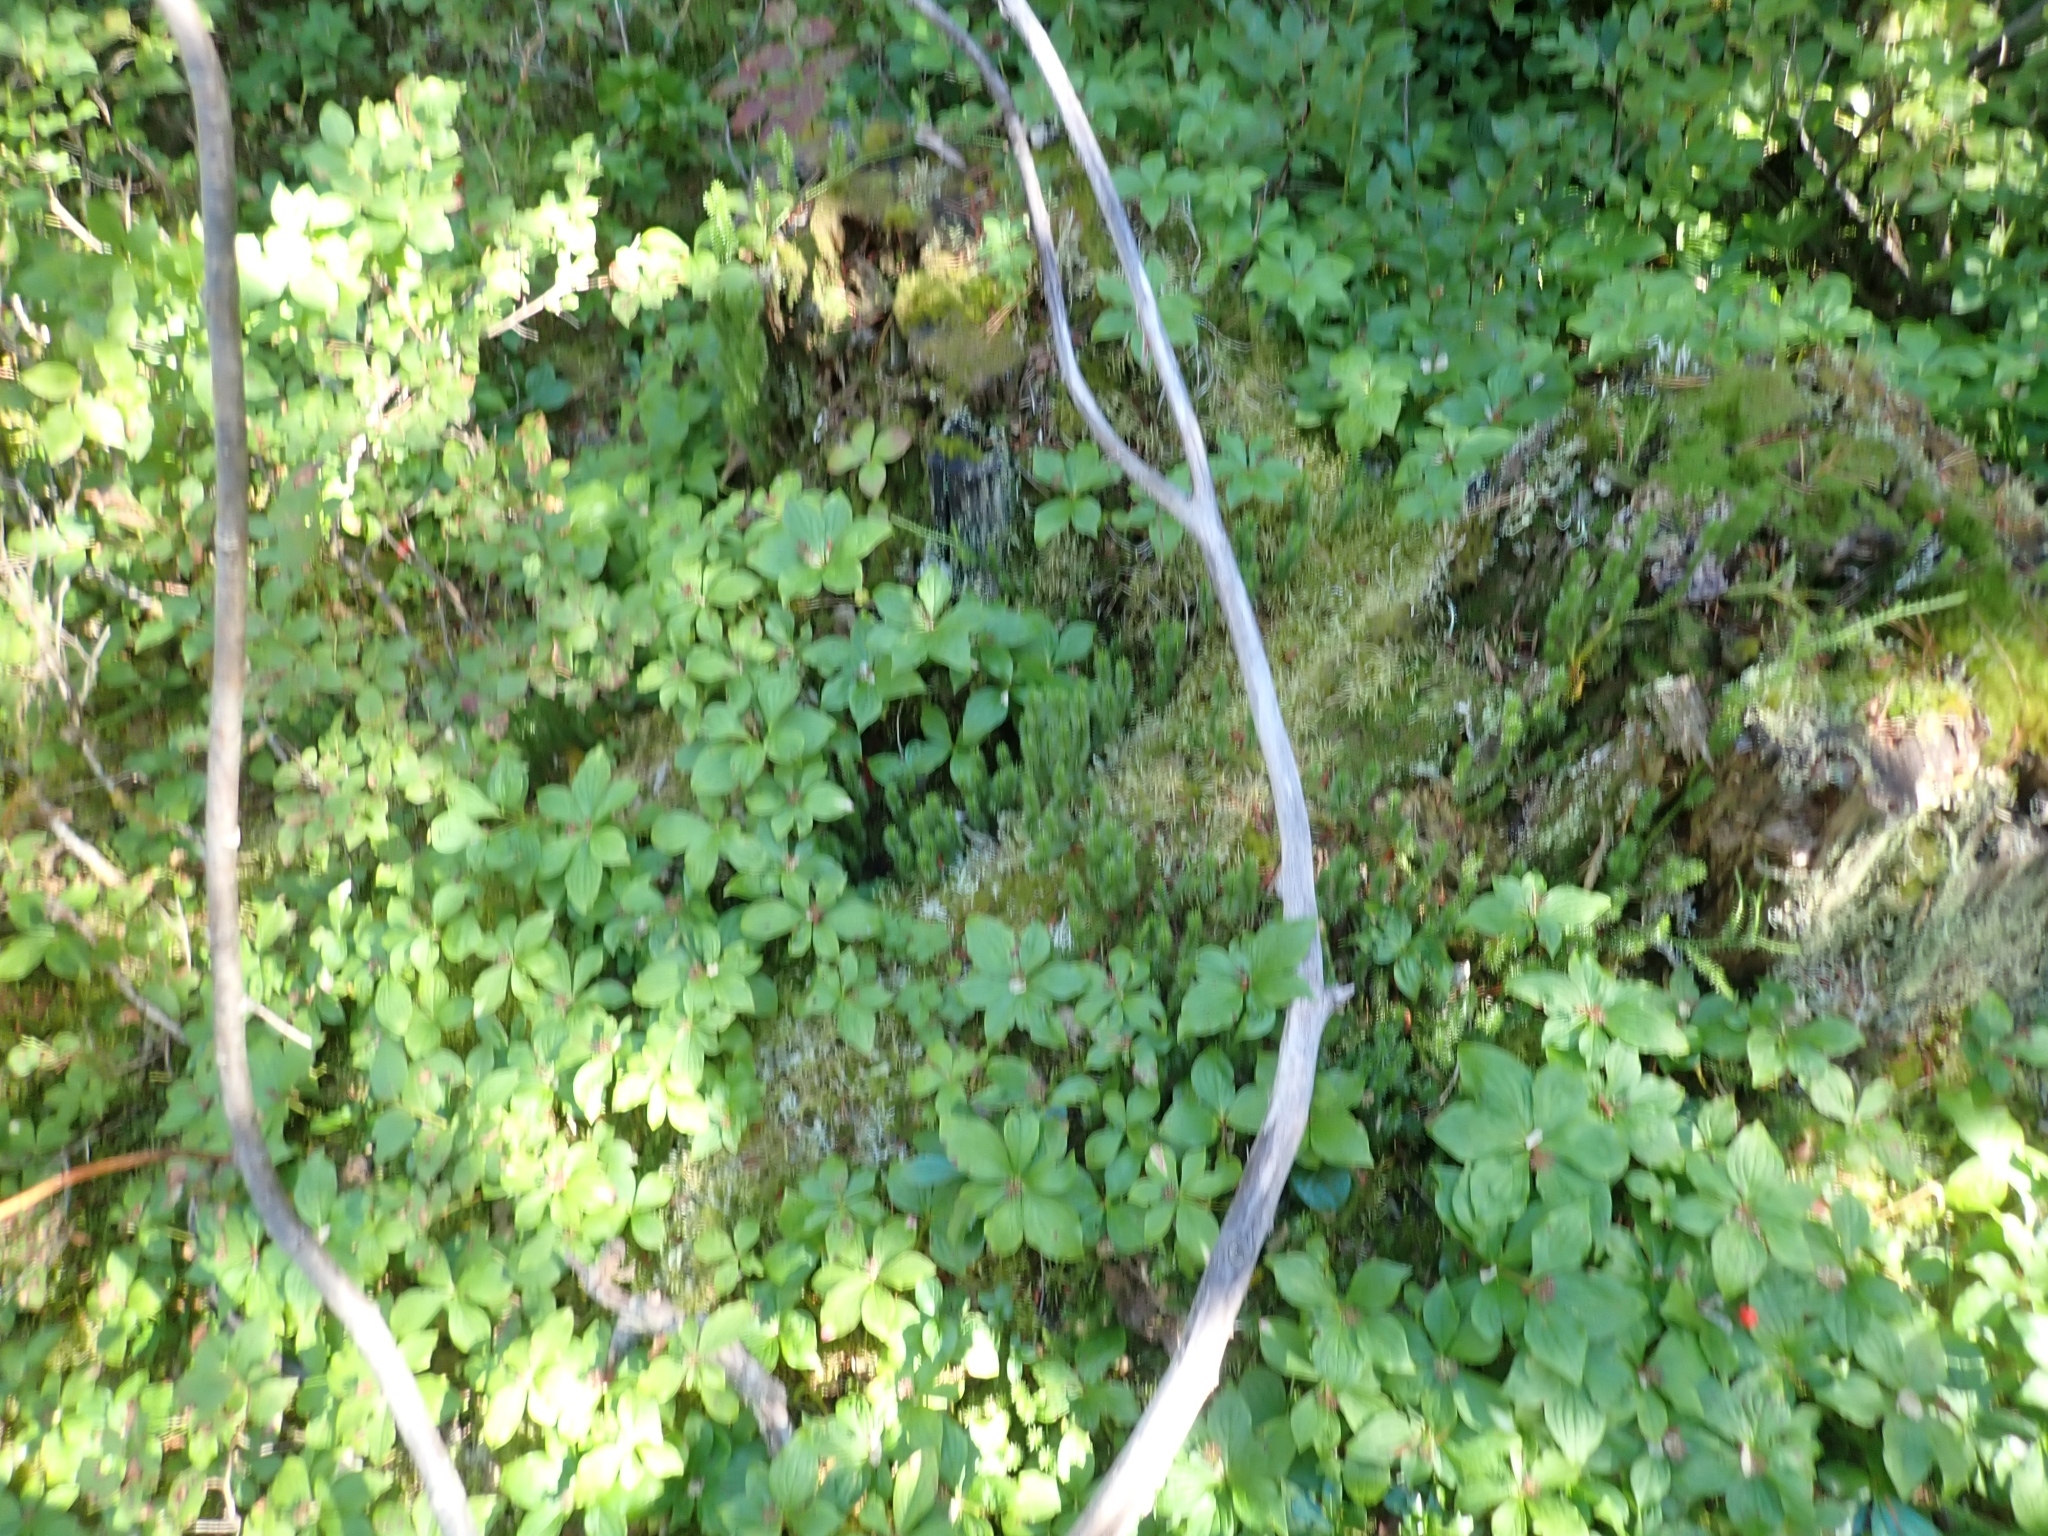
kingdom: Plantae
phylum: Tracheophyta
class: Lycopodiopsida
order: Lycopodiales
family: Lycopodiaceae
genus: Spinulum
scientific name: Spinulum annotinum
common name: Interrupted club-moss
